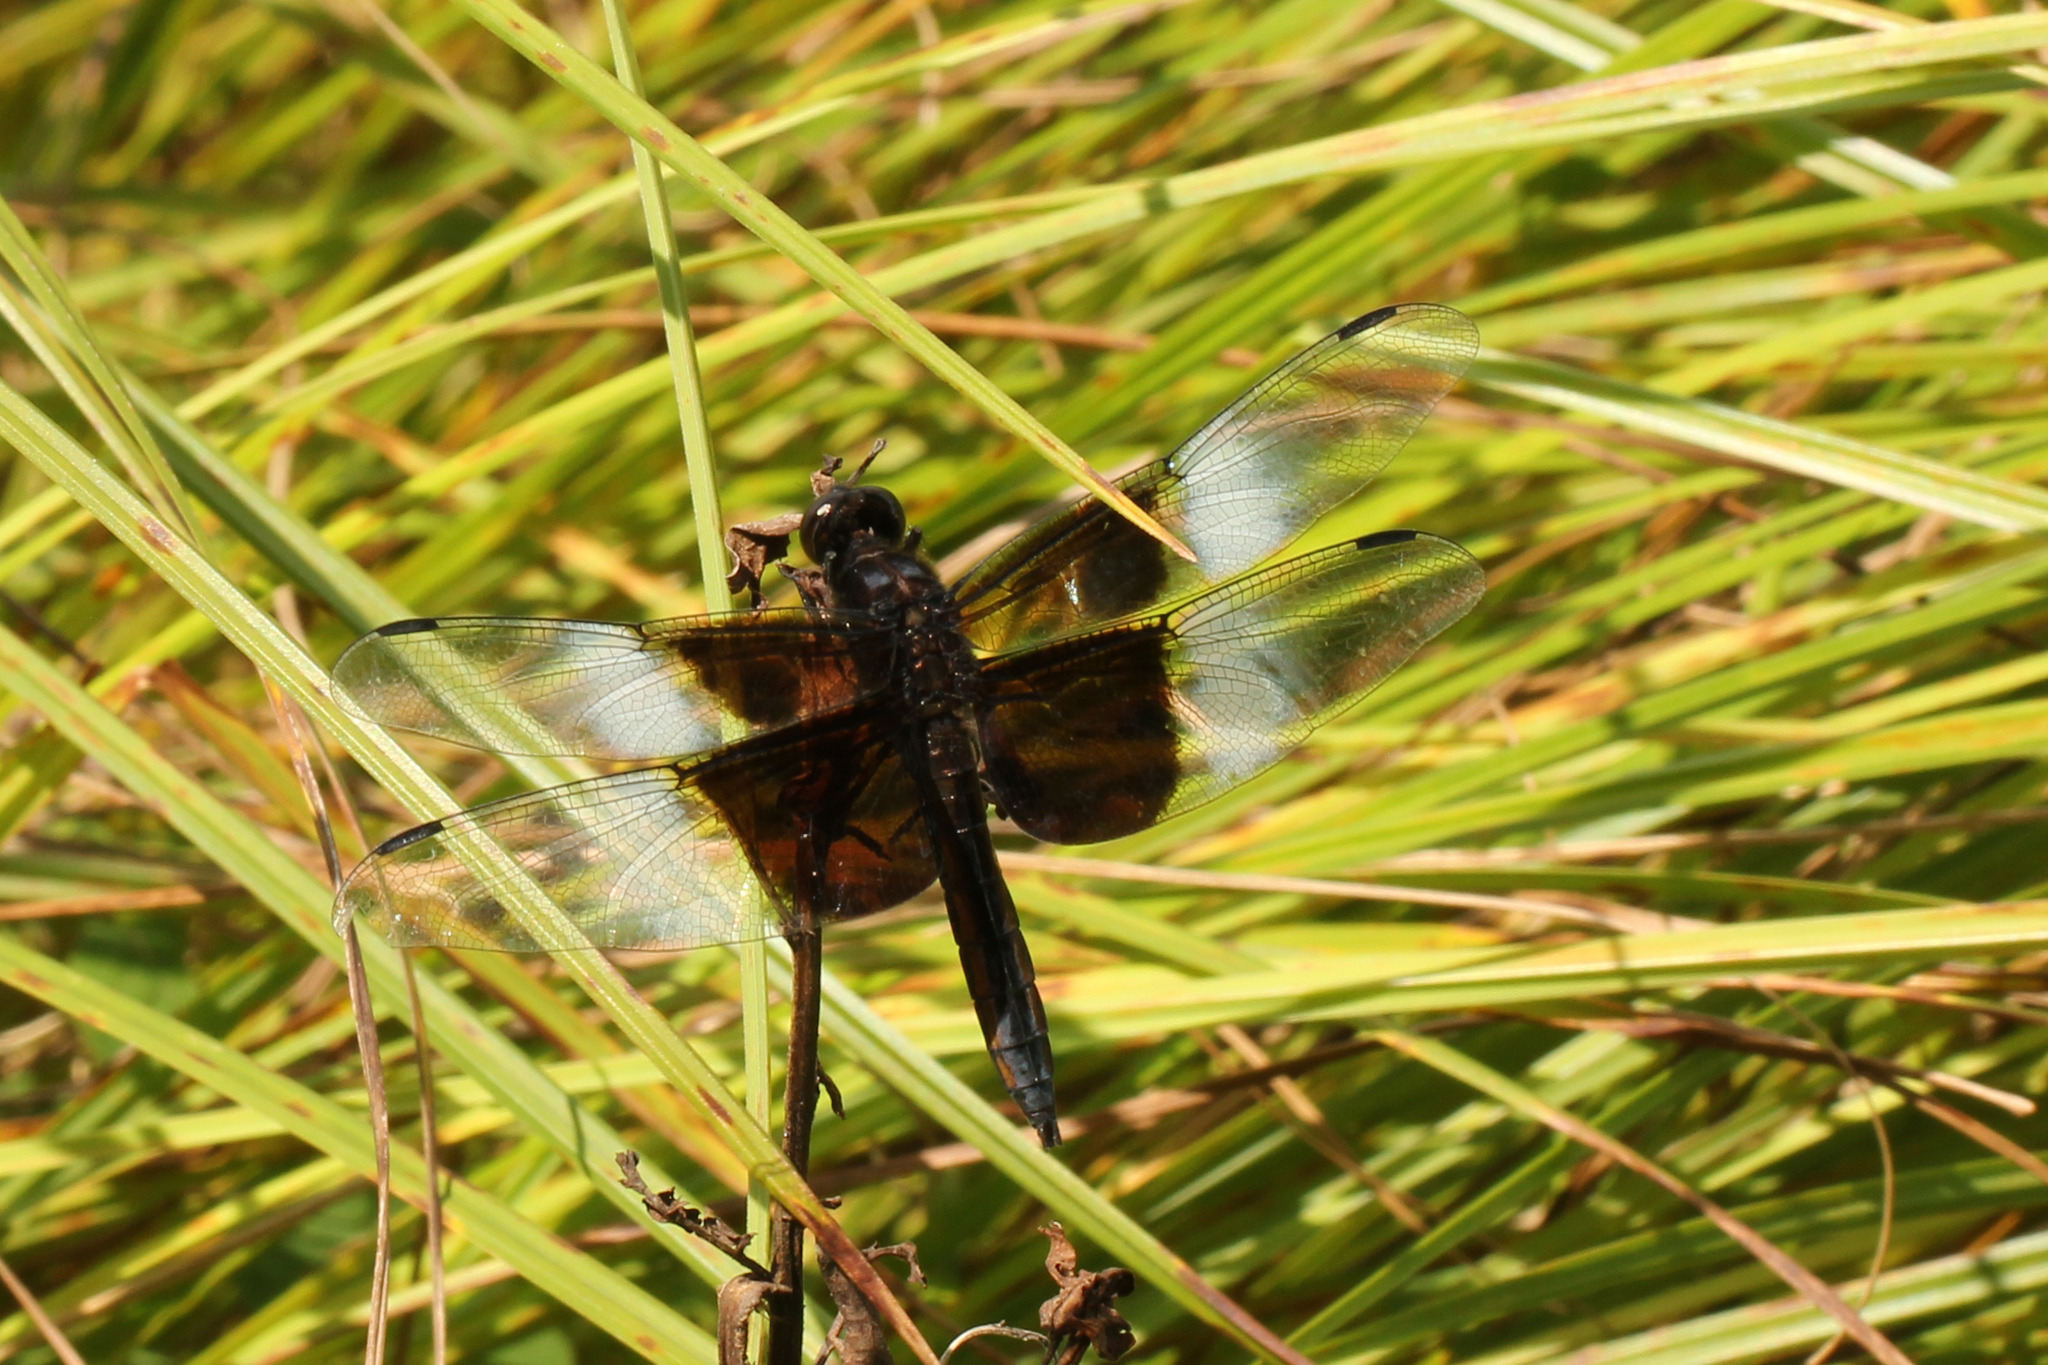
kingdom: Animalia
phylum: Arthropoda
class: Insecta
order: Odonata
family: Libellulidae
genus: Libellula
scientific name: Libellula luctuosa
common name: Widow skimmer
